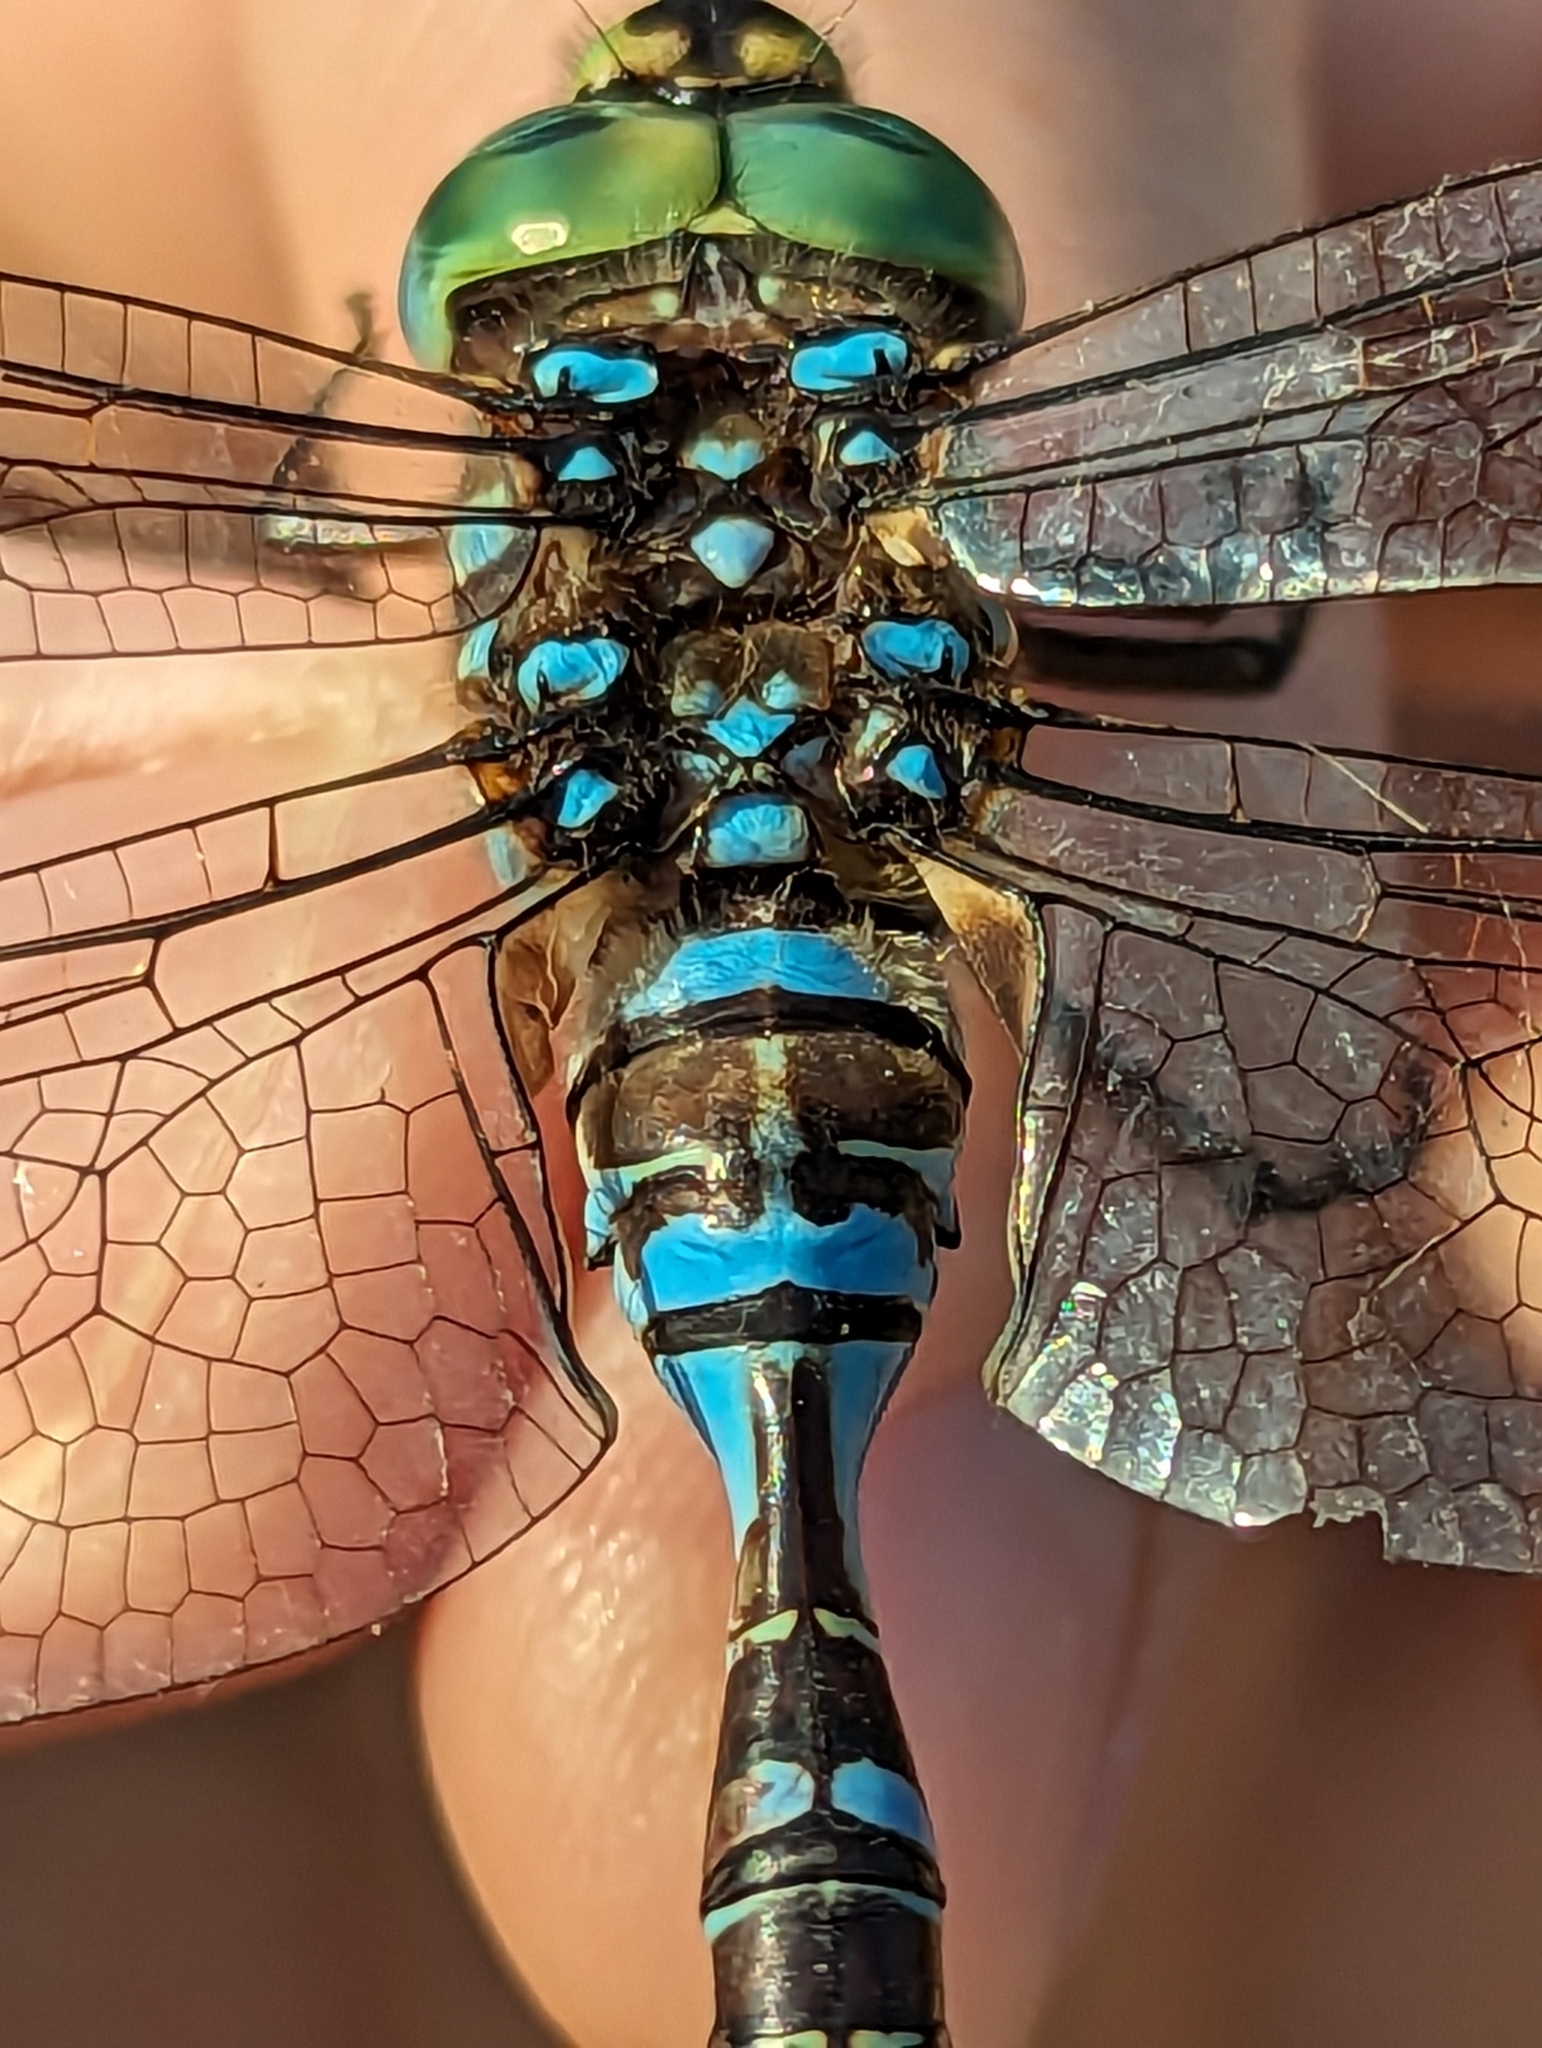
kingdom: Animalia
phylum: Arthropoda
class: Insecta
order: Odonata
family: Aeshnidae
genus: Aeshna
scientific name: Aeshna eremita
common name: Lake darner
